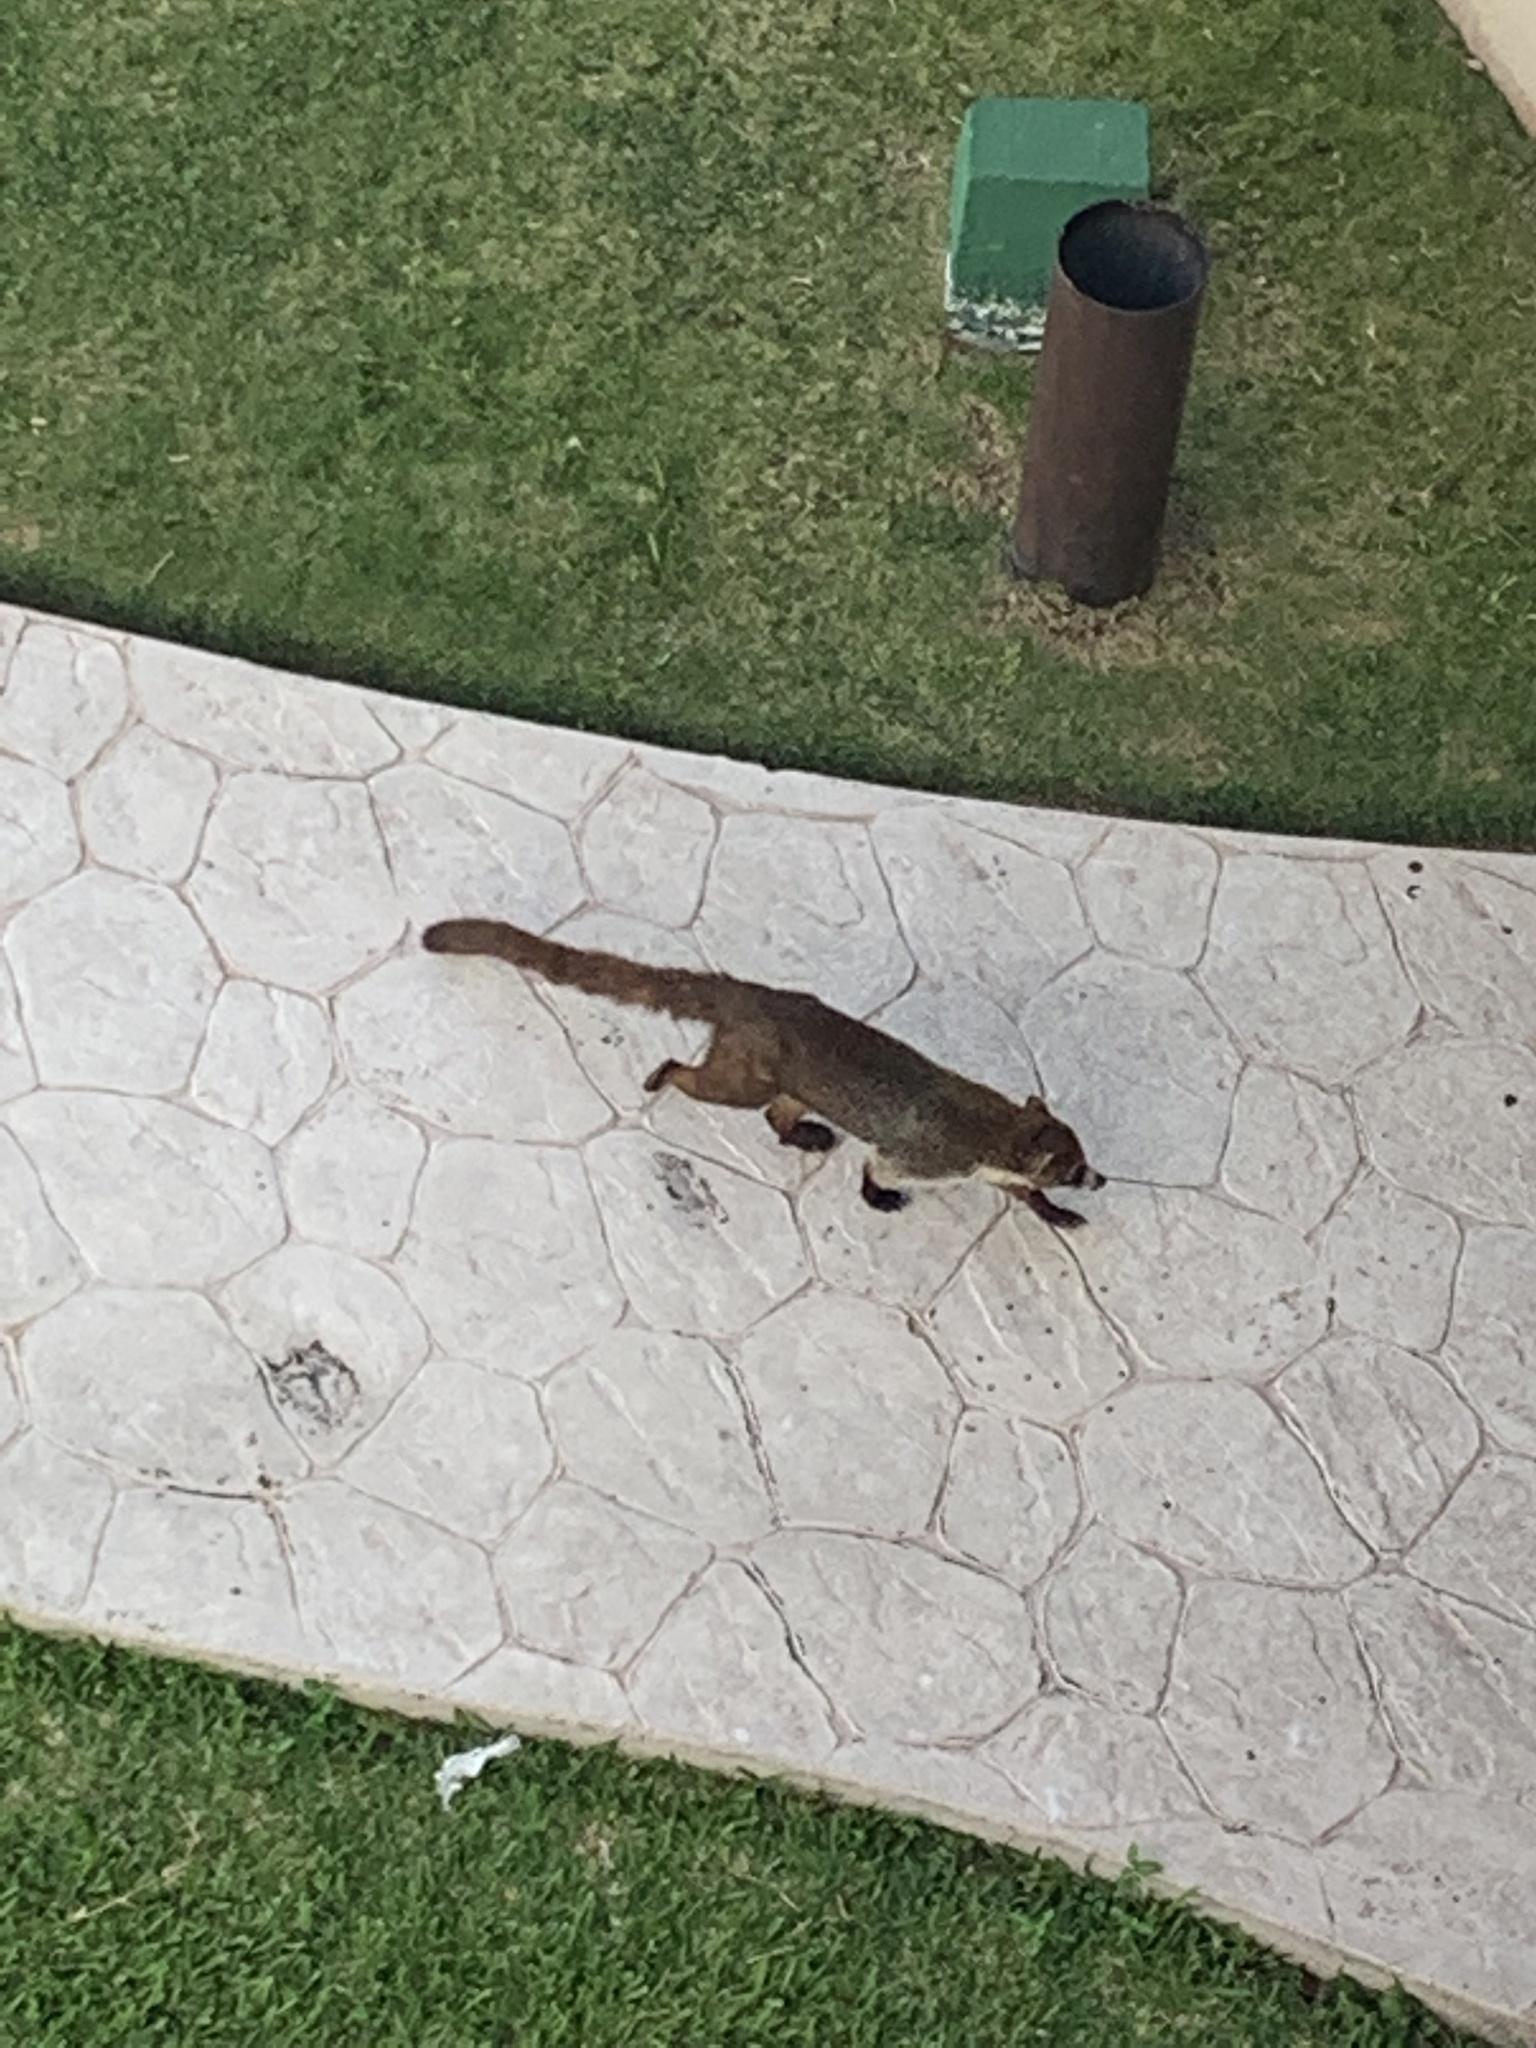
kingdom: Animalia
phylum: Chordata
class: Mammalia
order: Carnivora
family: Procyonidae
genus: Nasua
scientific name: Nasua narica
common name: White-nosed coati
